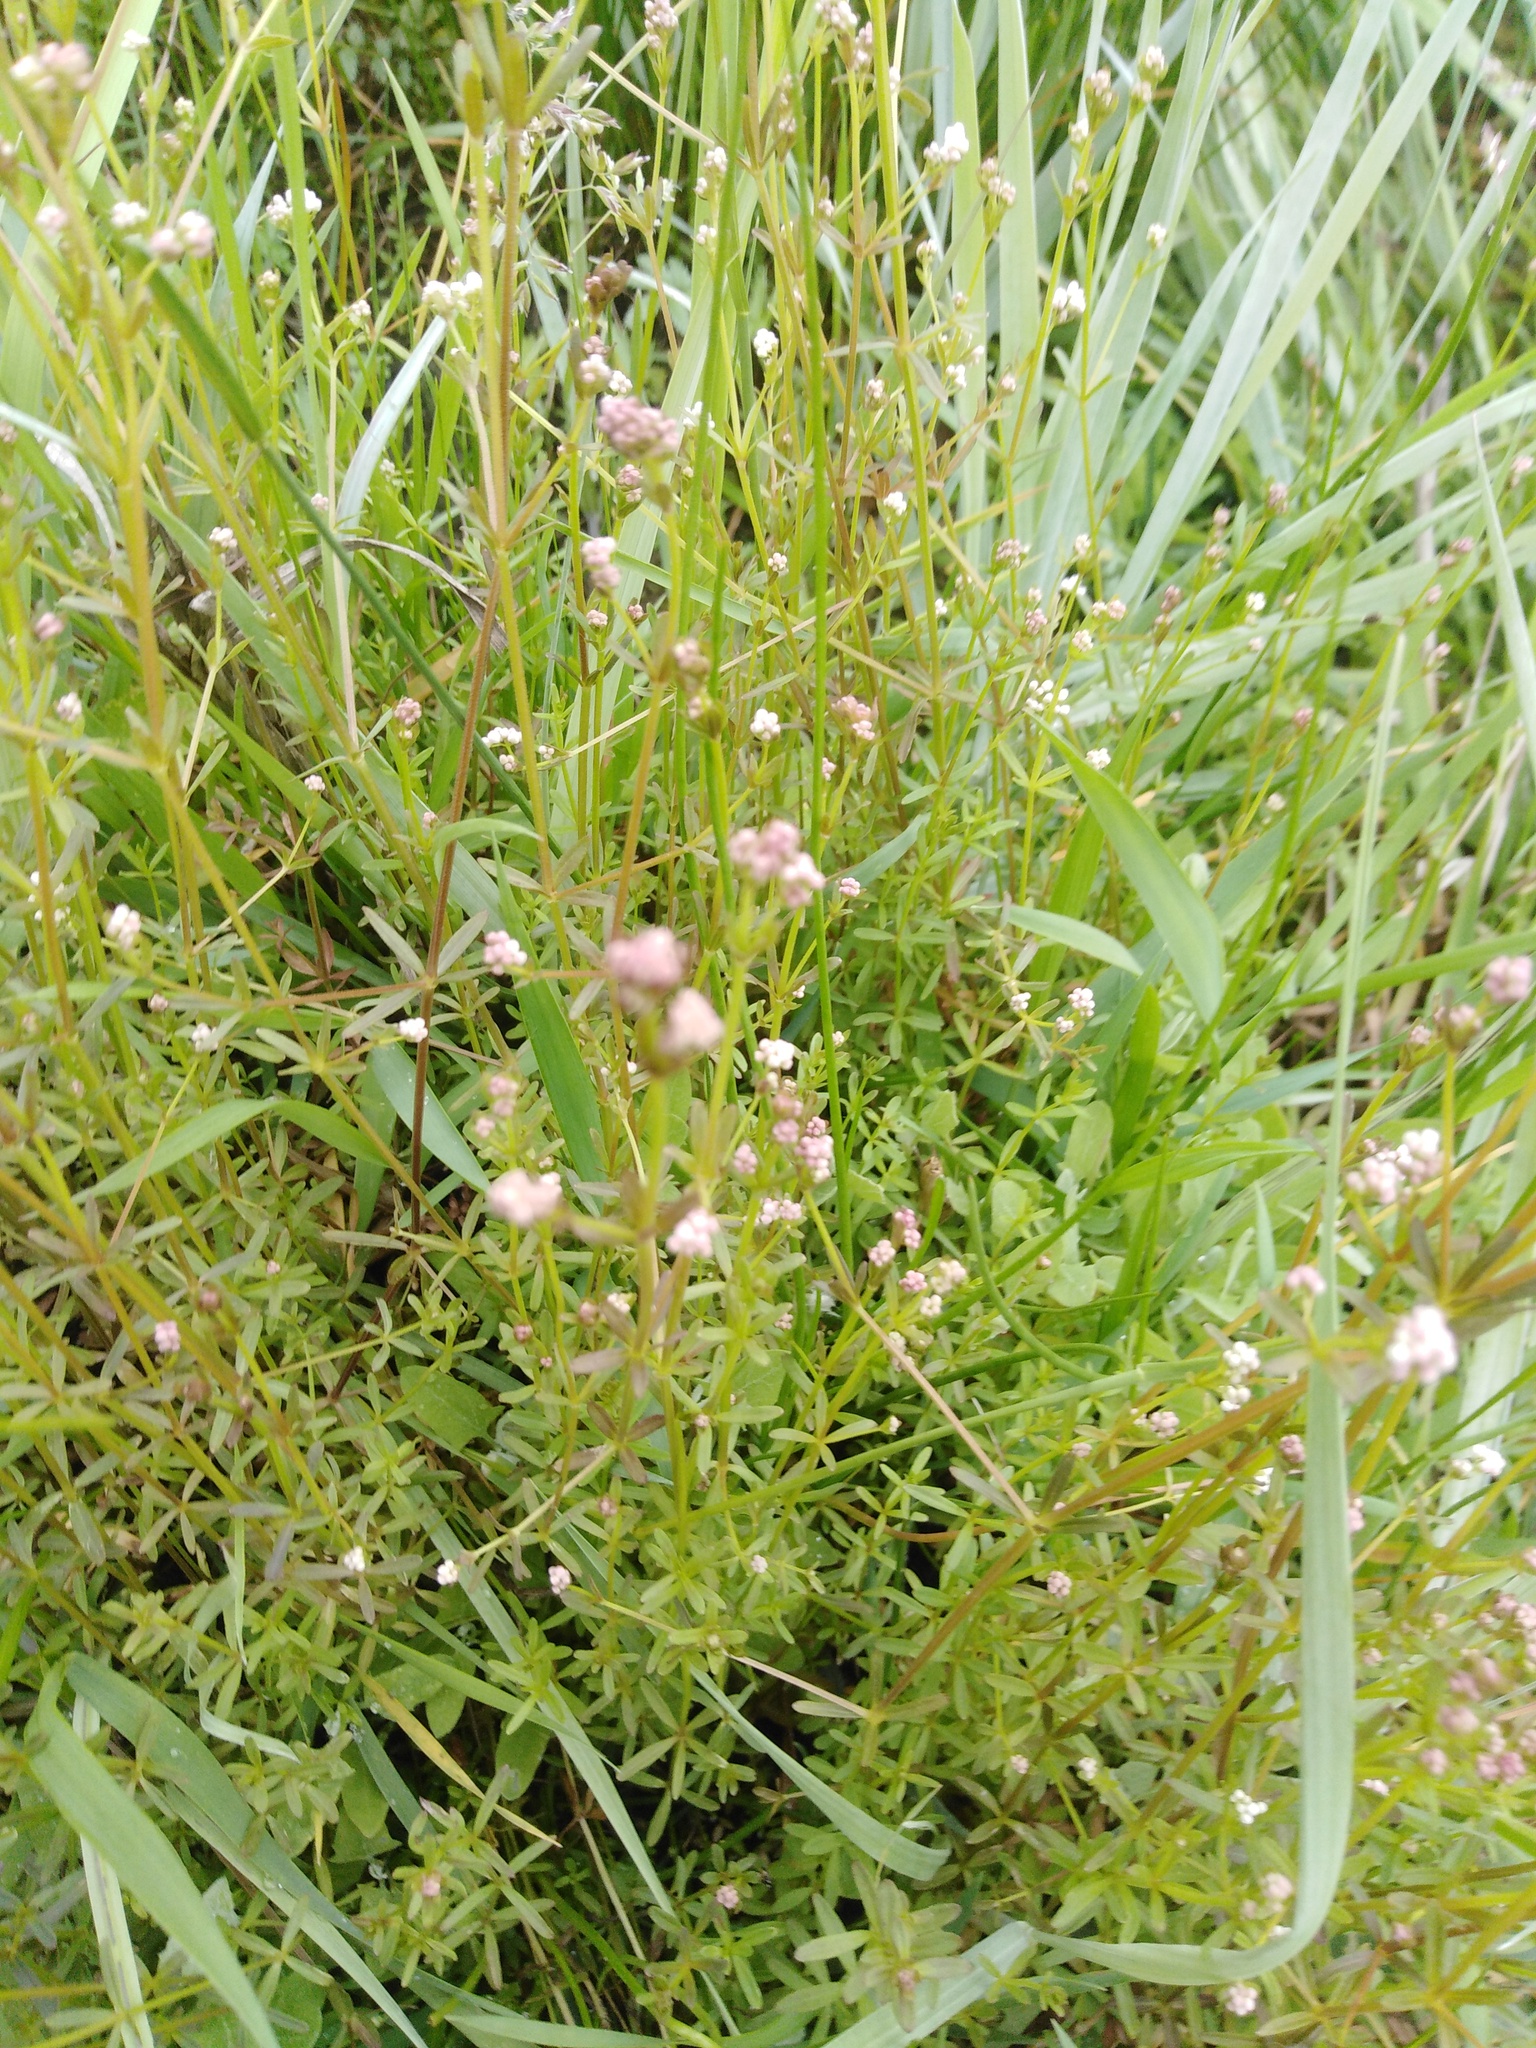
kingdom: Plantae
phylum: Tracheophyta
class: Magnoliopsida
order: Gentianales
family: Rubiaceae
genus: Galium
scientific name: Galium palustre
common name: Common marsh-bedstraw
